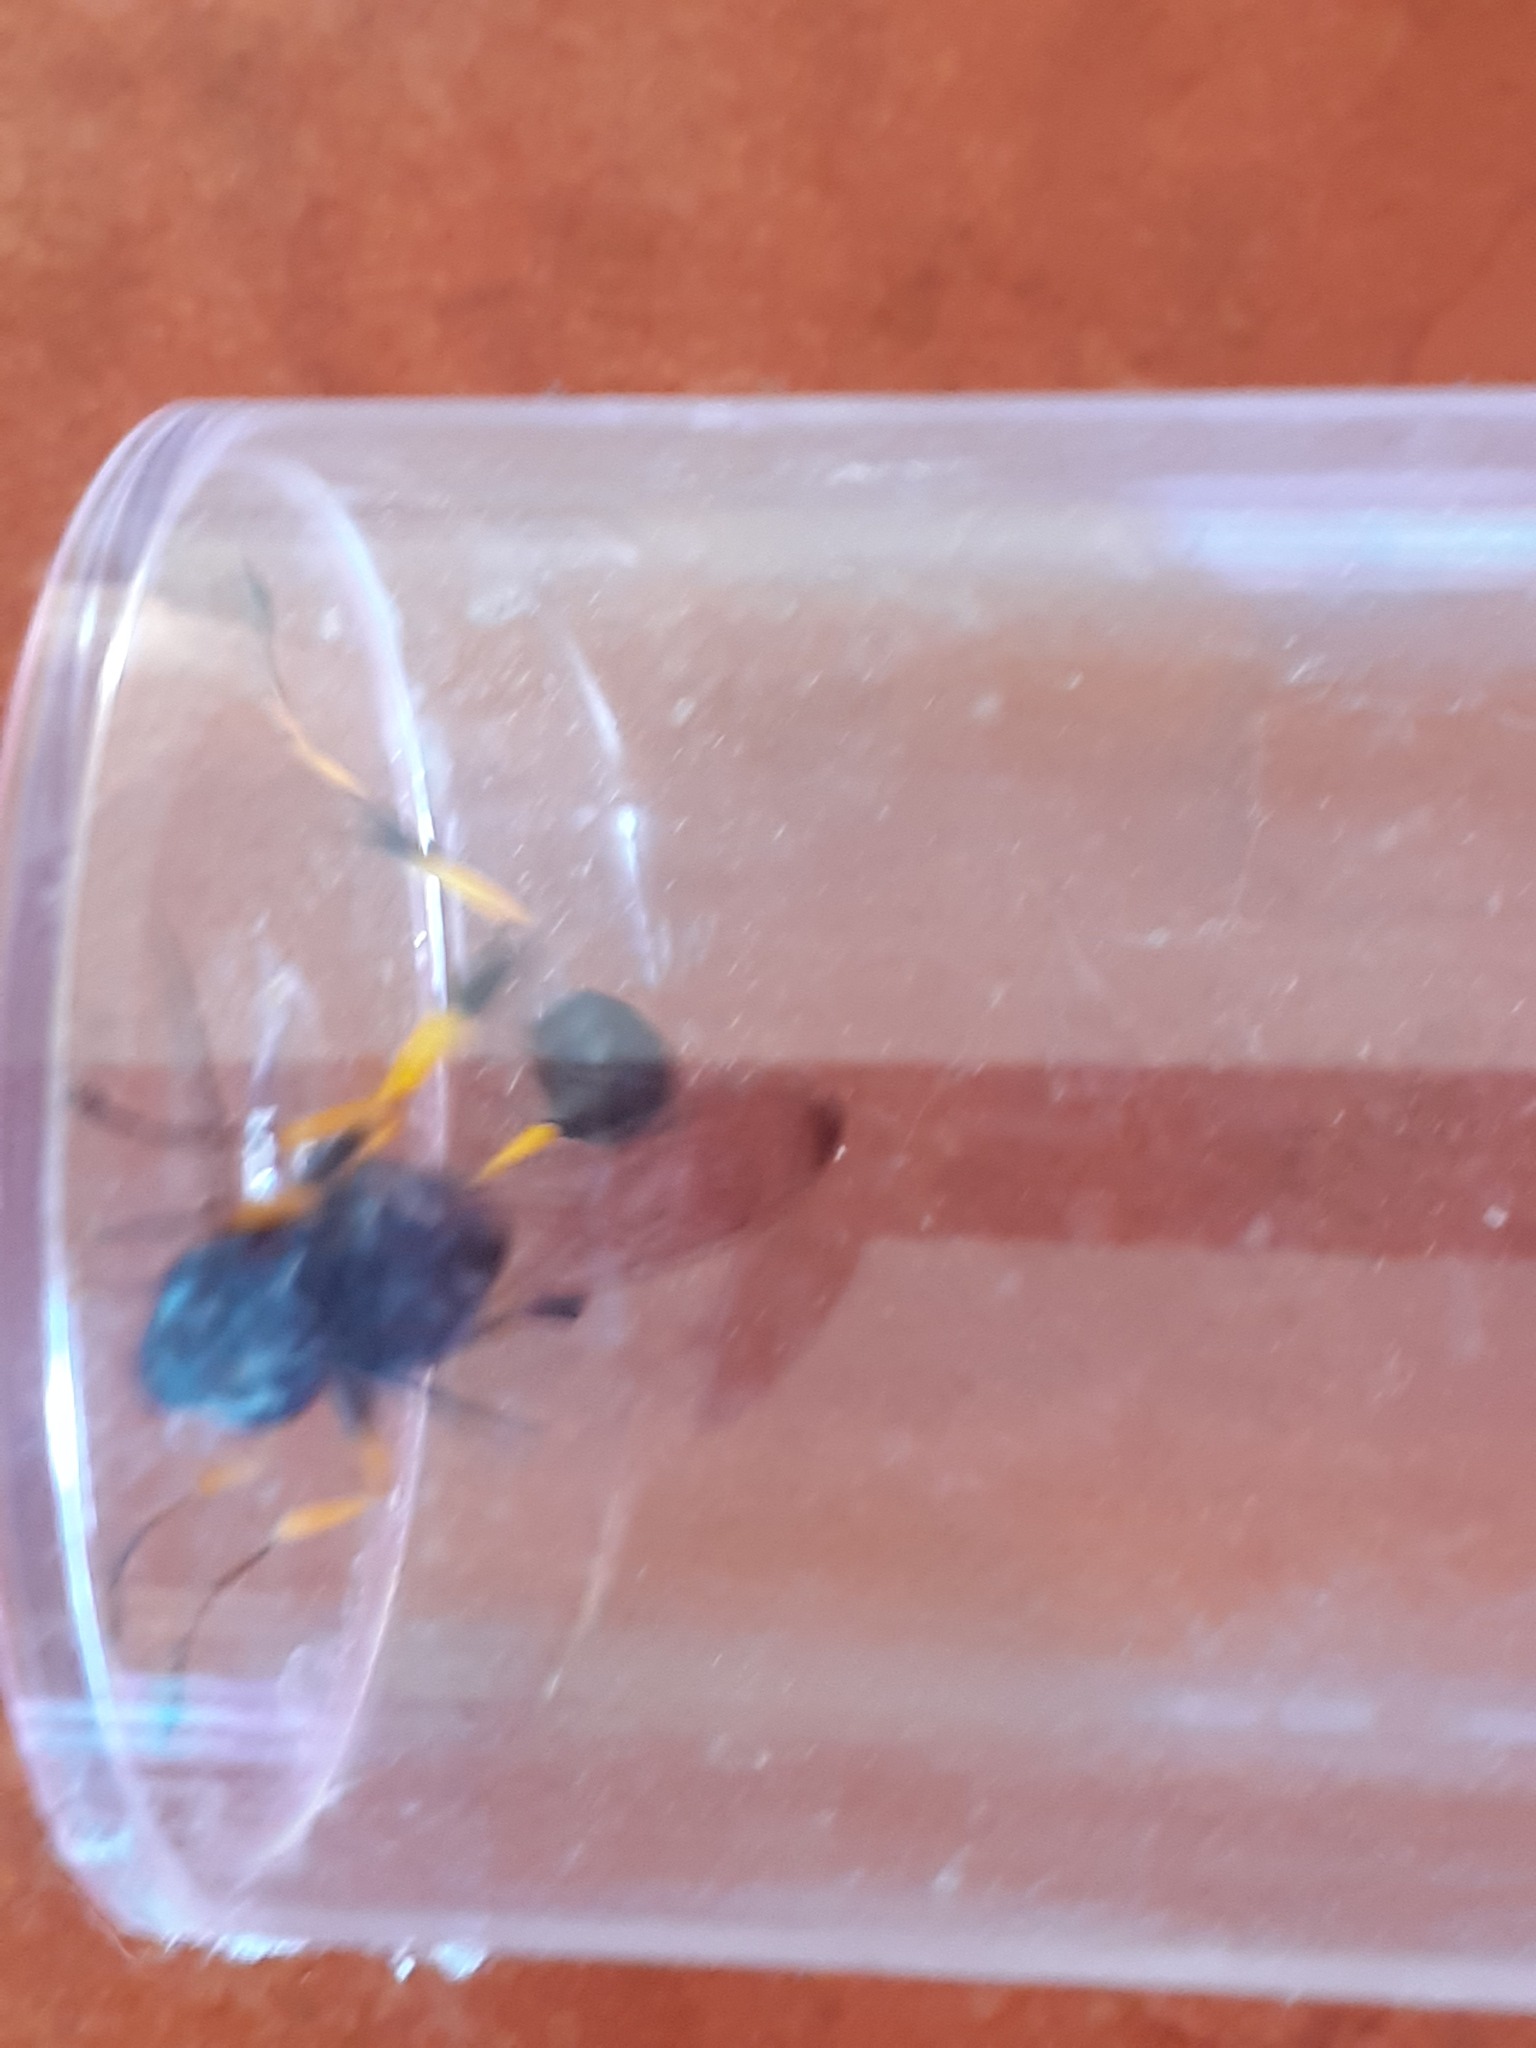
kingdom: Animalia
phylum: Arthropoda
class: Insecta
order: Hymenoptera
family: Sphecidae
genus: Sceliphron
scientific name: Sceliphron spirifex
